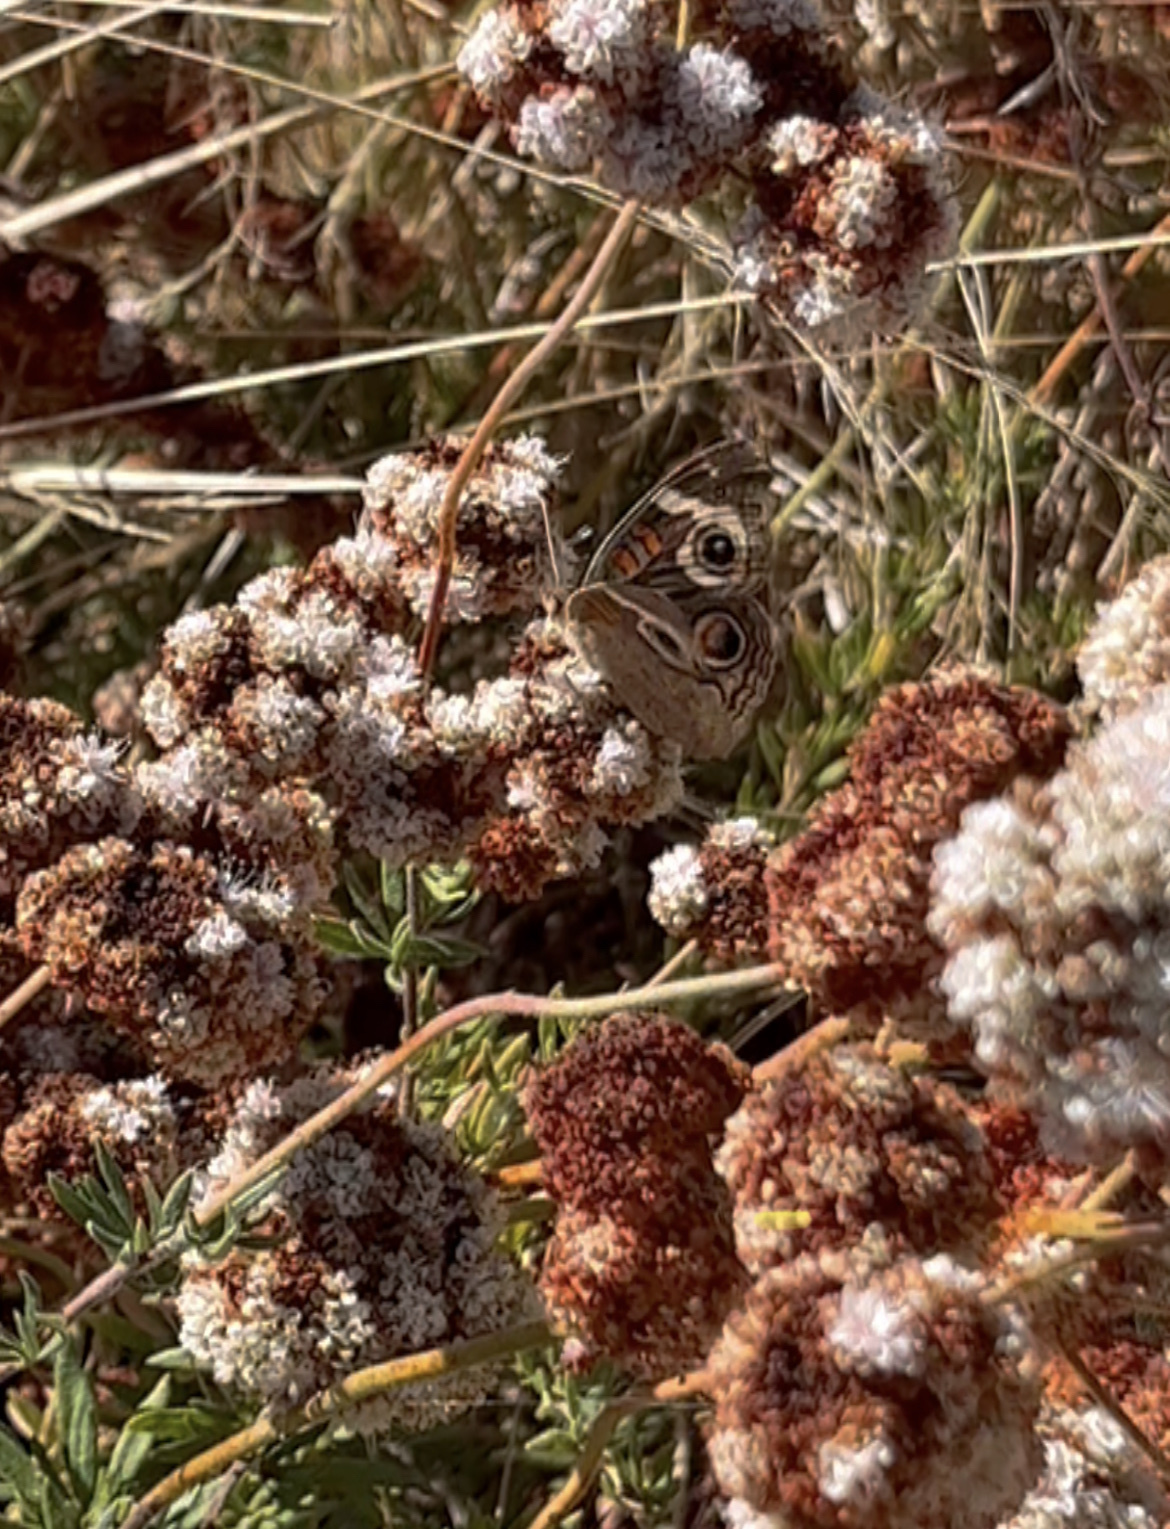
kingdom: Animalia
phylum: Arthropoda
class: Insecta
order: Lepidoptera
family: Nymphalidae
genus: Junonia
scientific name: Junonia grisea
